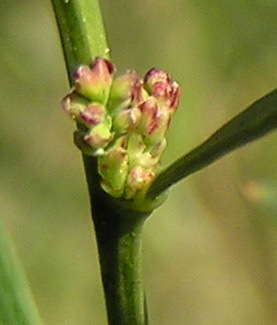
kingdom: Plantae
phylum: Tracheophyta
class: Magnoliopsida
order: Fabales
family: Fabaceae
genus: Daviesia
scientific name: Daviesia leptophylla
